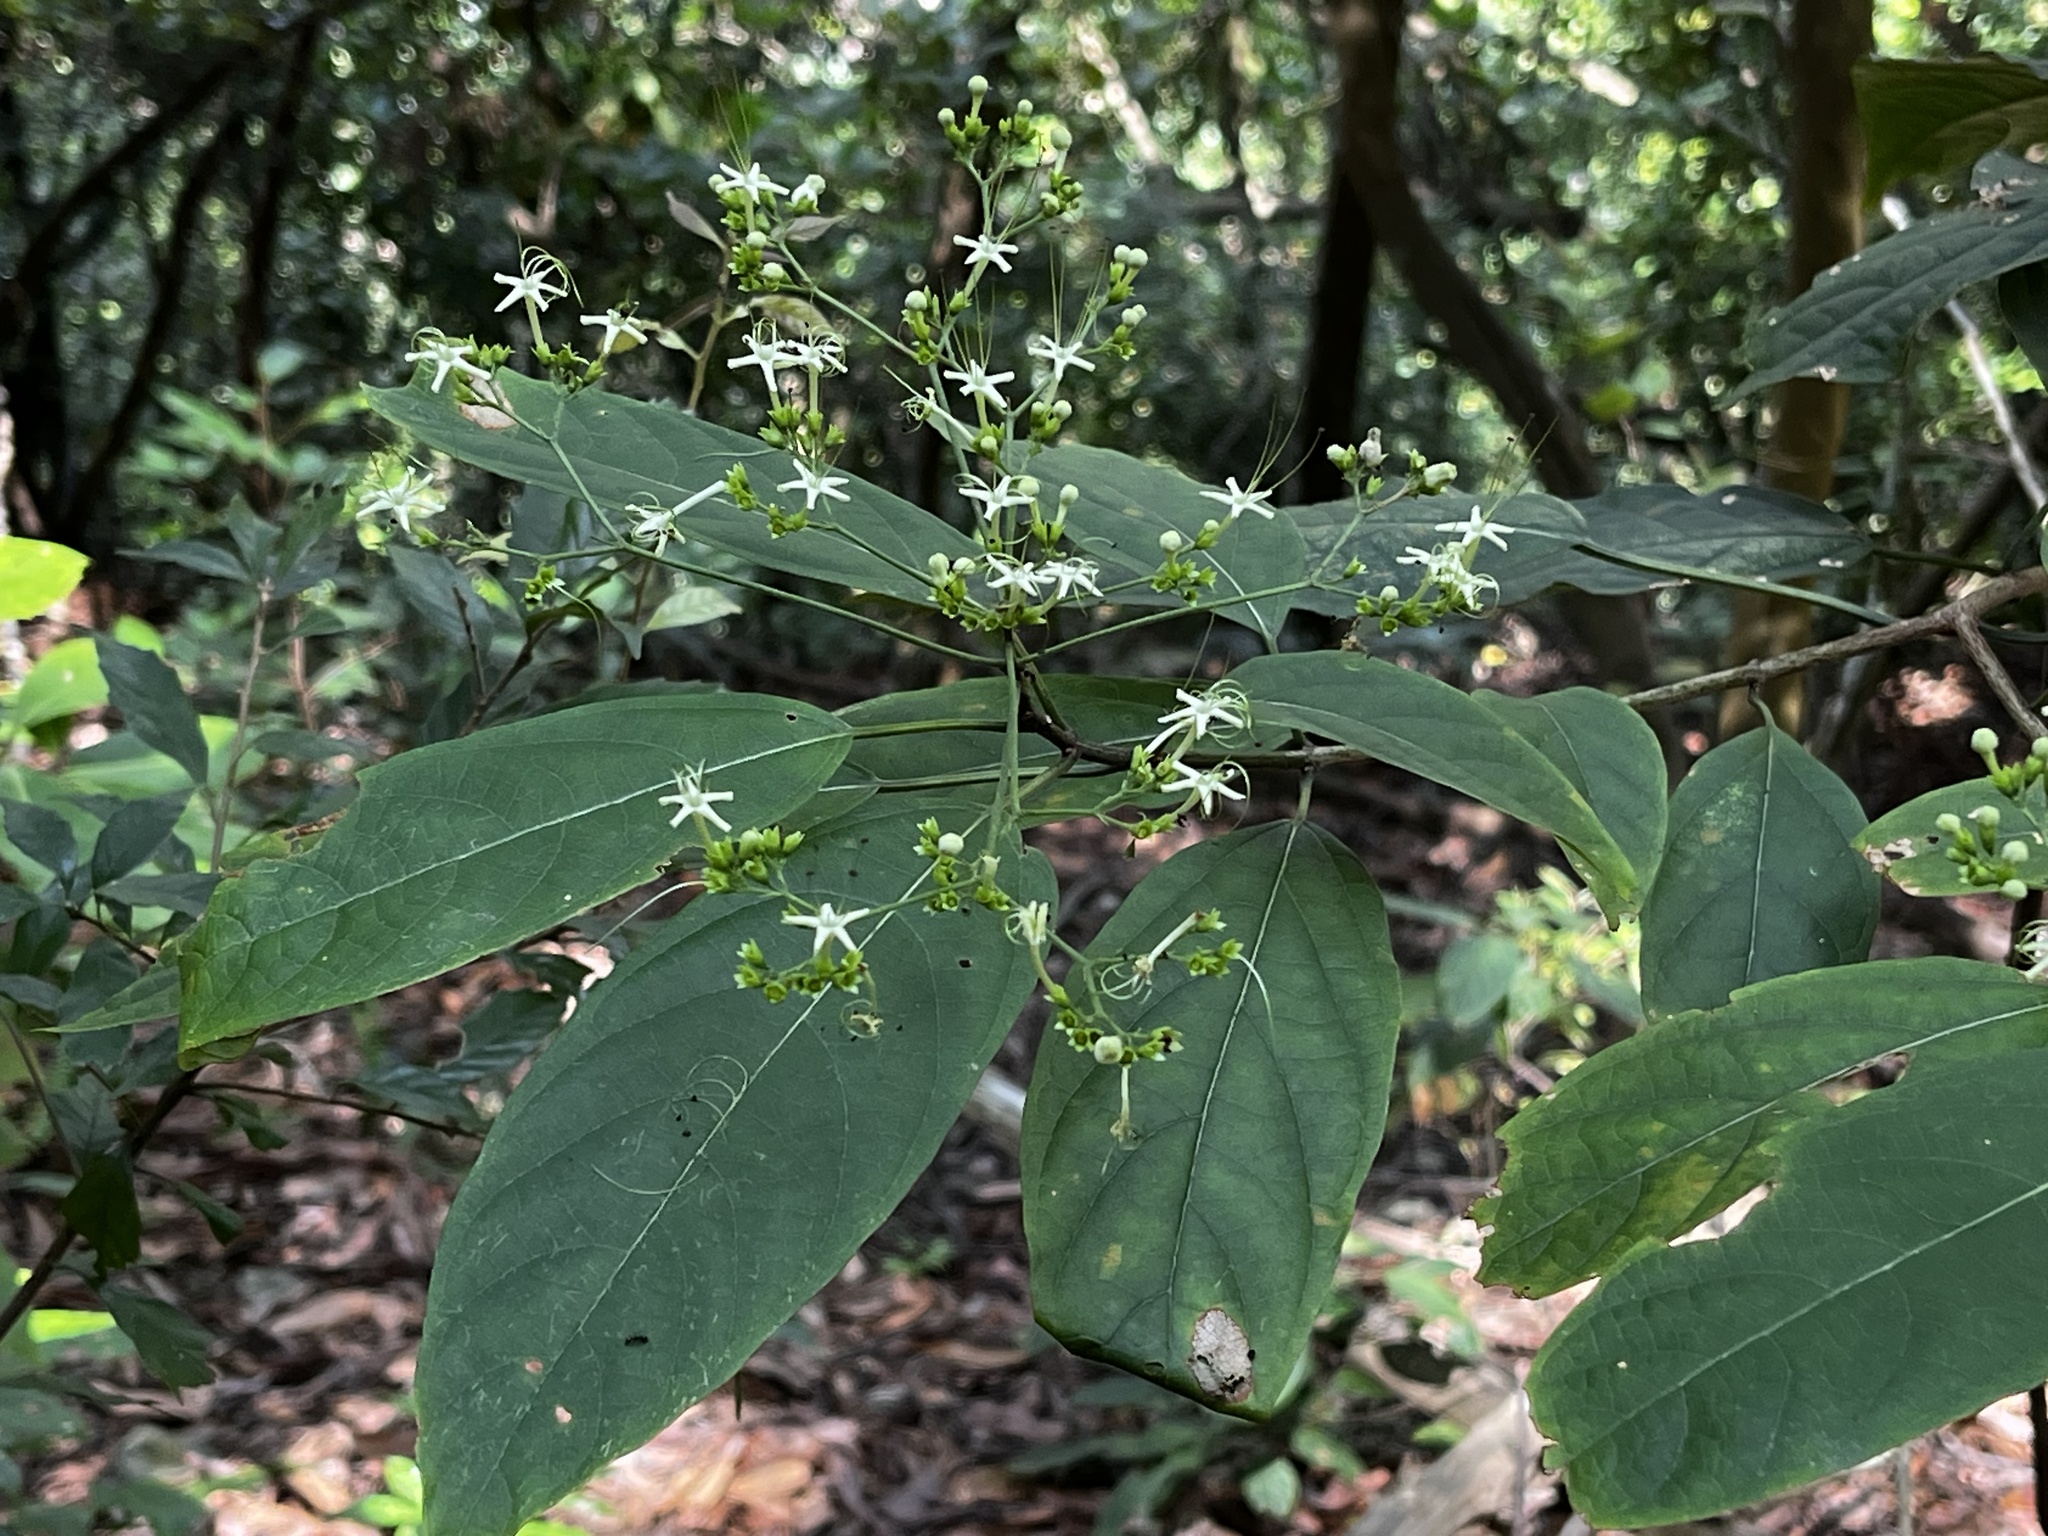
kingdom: Plantae
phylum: Tracheophyta
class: Magnoliopsida
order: Lamiales
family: Lamiaceae
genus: Clerodendrum
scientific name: Clerodendrum cyrtophyllum
